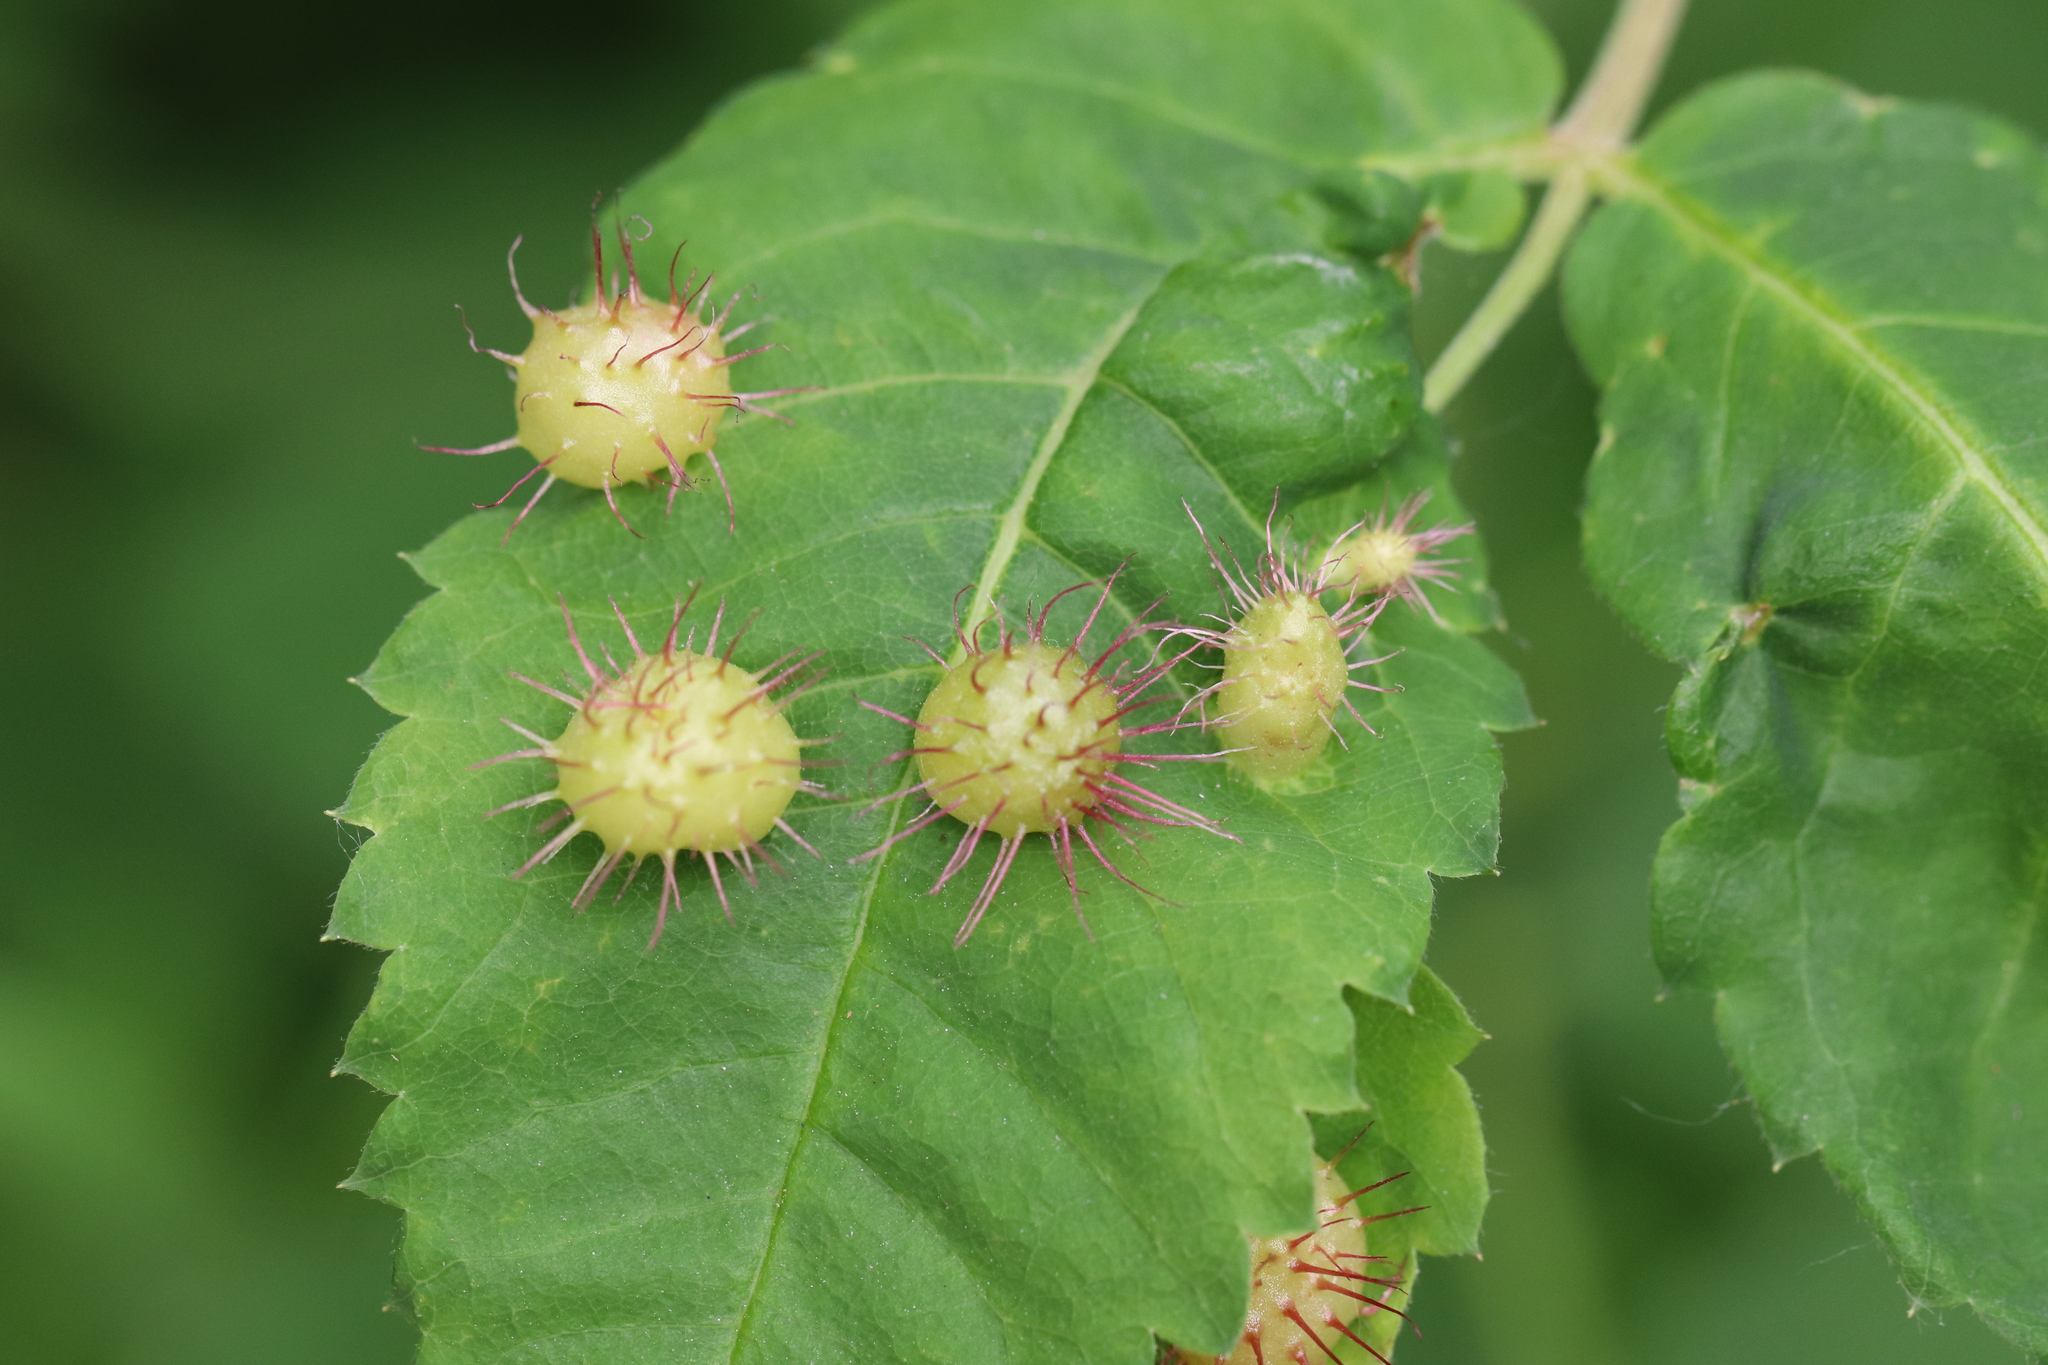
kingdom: Animalia
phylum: Arthropoda
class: Insecta
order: Hymenoptera
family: Cynipidae
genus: Diplolepis
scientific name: Diplolepis polita
